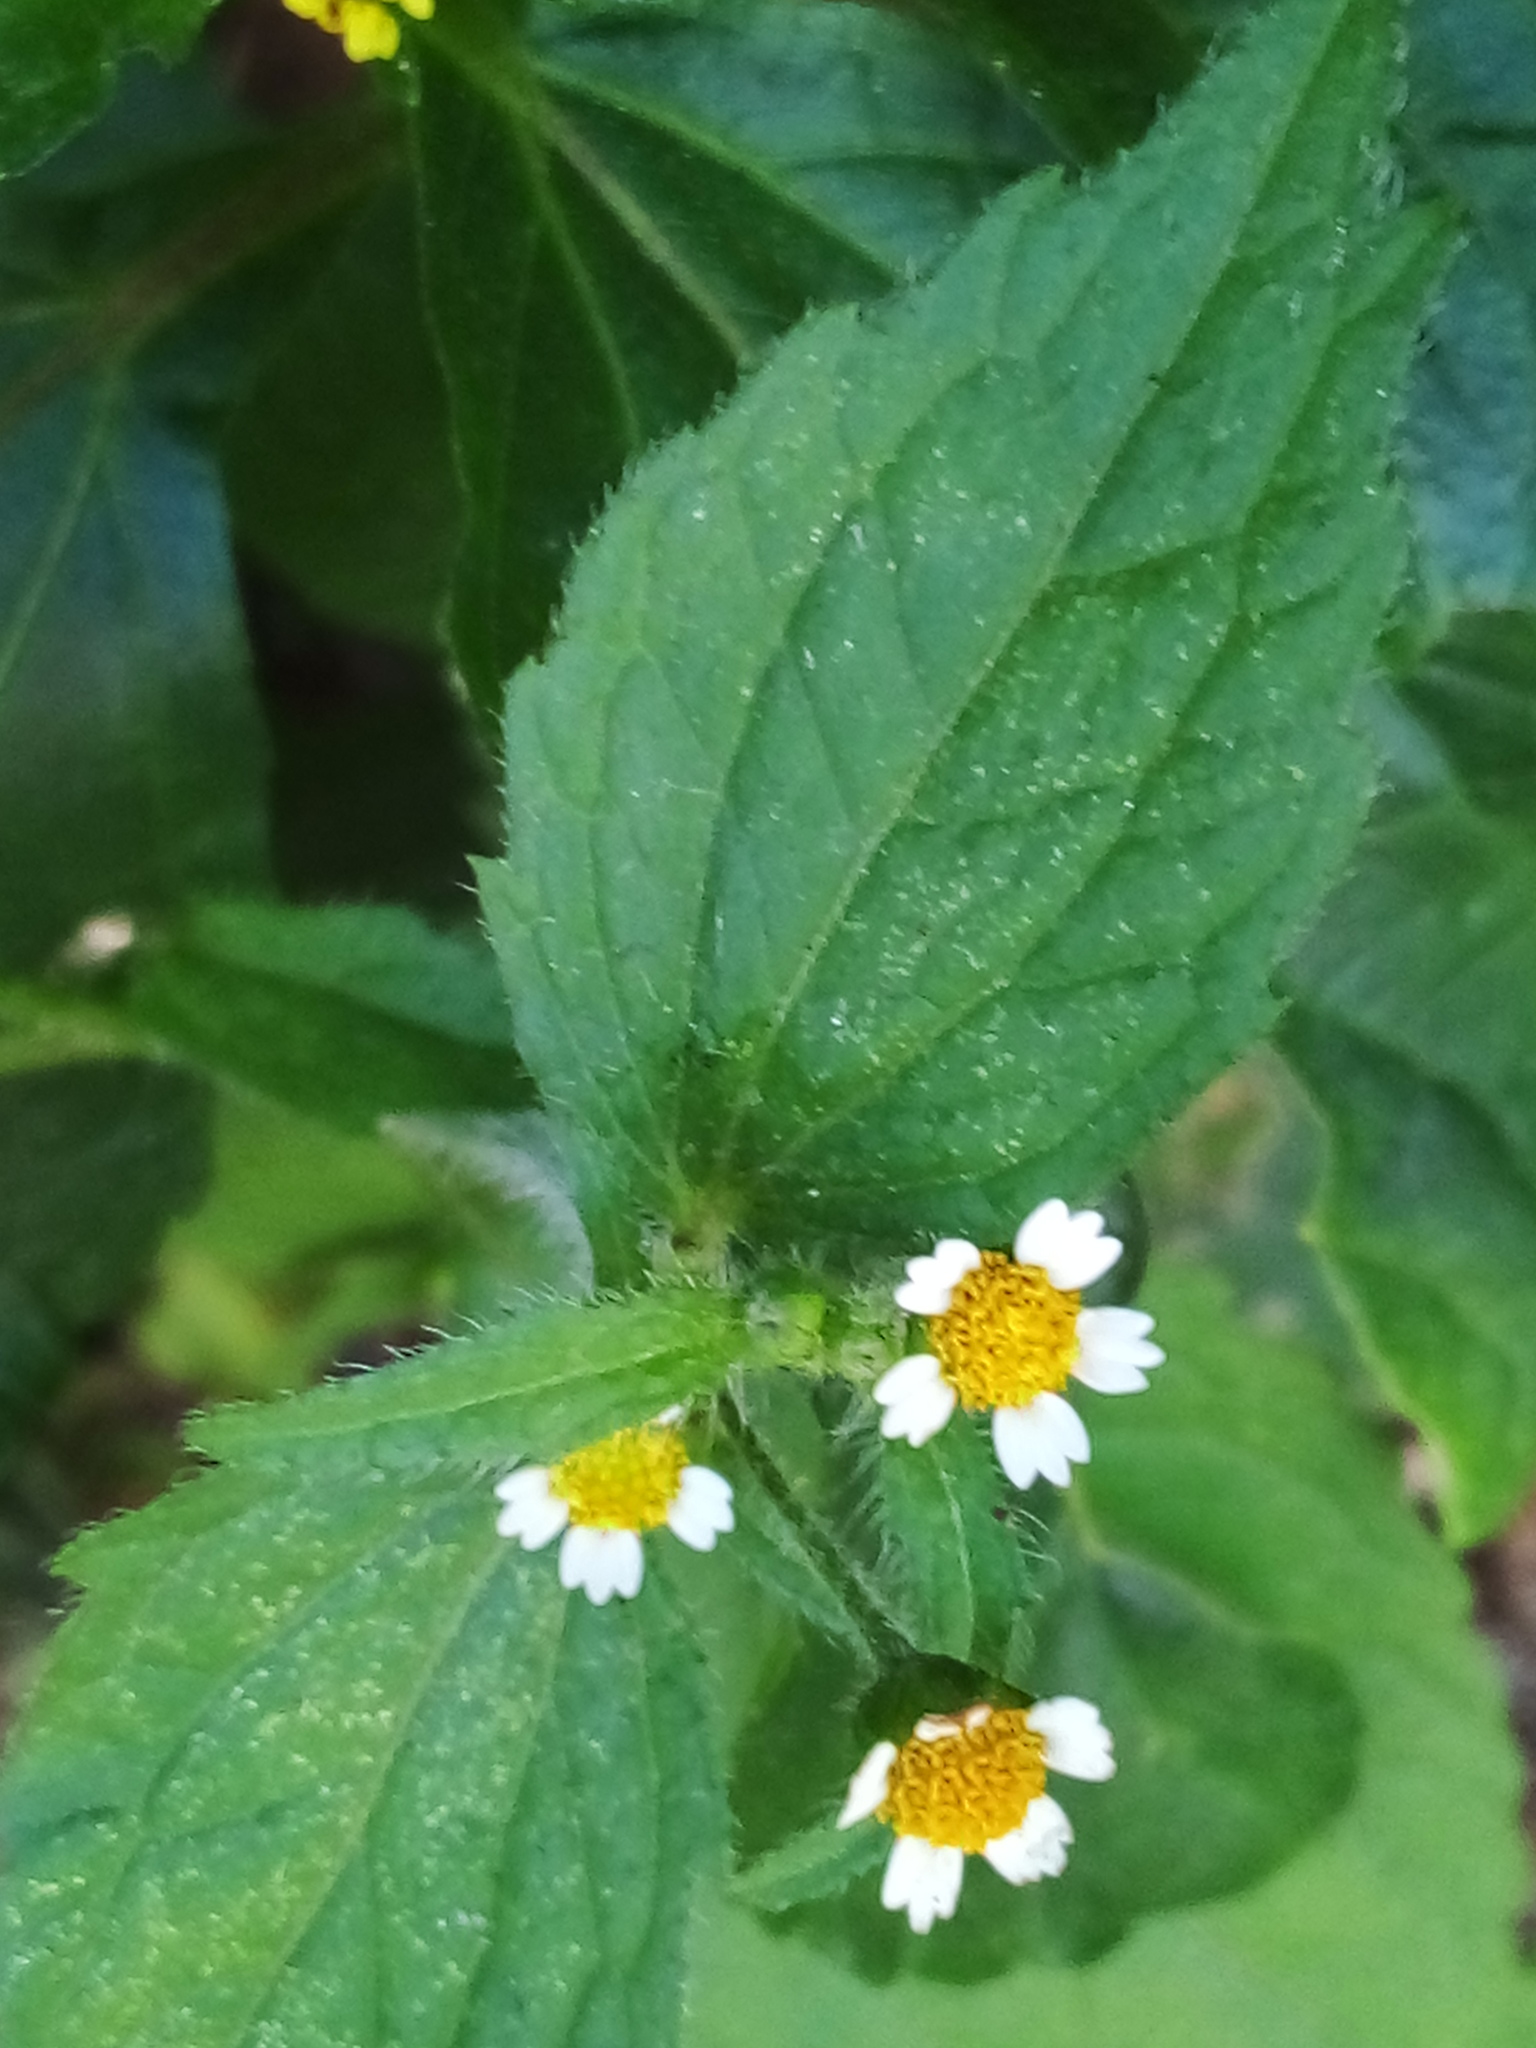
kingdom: Plantae
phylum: Tracheophyta
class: Magnoliopsida
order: Asterales
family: Asteraceae
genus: Galinsoga
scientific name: Galinsoga quadriradiata
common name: Shaggy soldier
